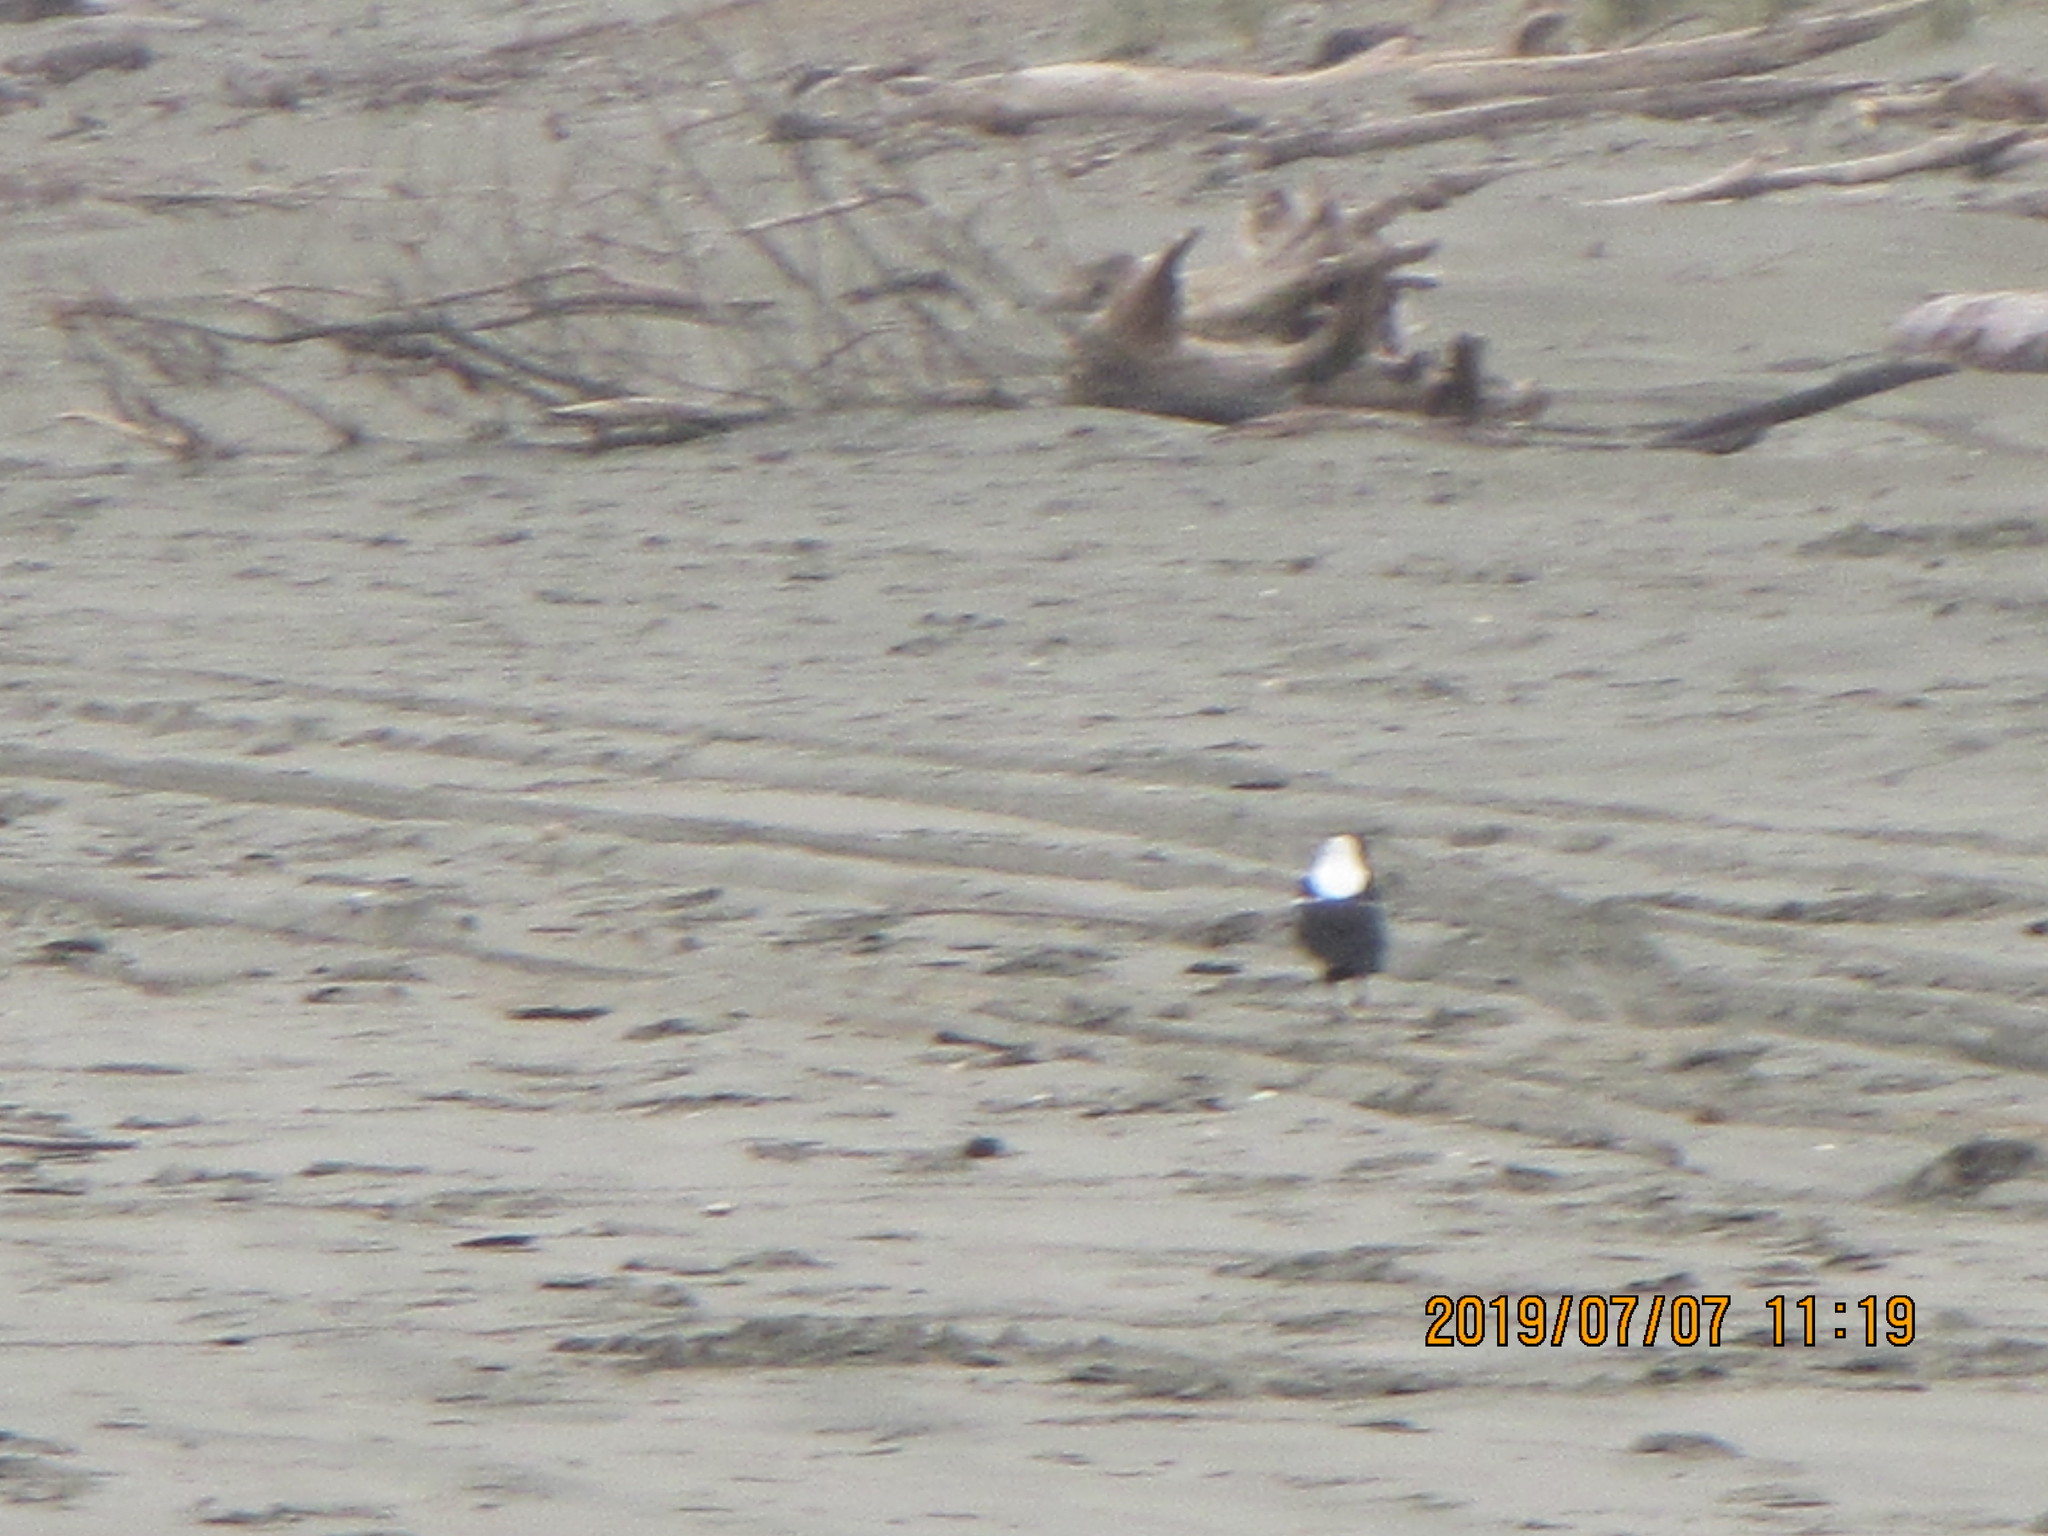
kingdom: Animalia
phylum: Chordata
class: Aves
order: Passeriformes
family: Cracticidae
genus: Gymnorhina
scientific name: Gymnorhina tibicen
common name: Australian magpie
